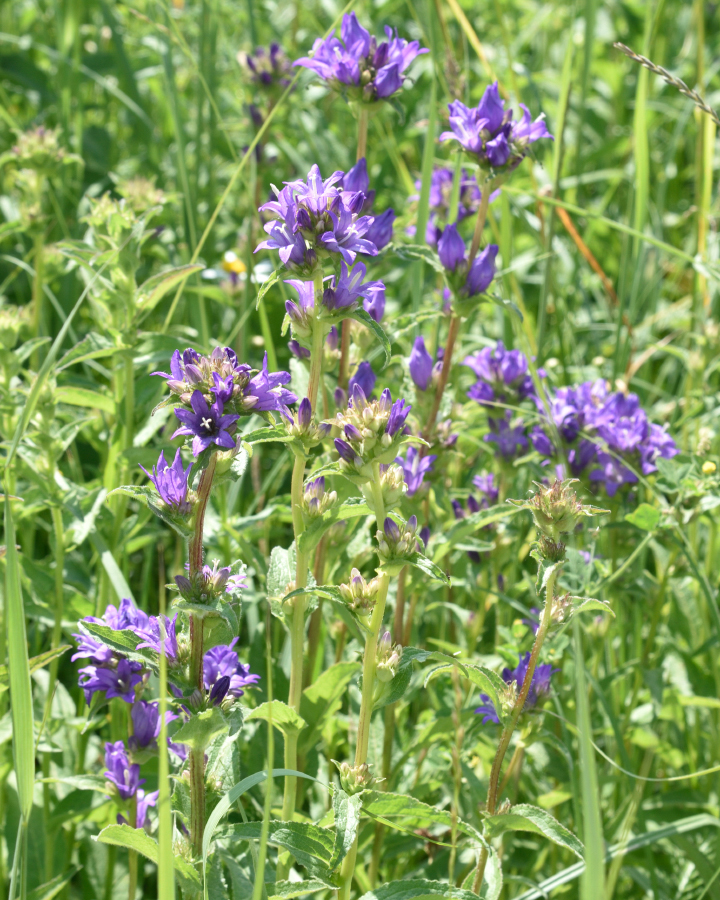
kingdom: Plantae
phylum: Tracheophyta
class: Magnoliopsida
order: Asterales
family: Campanulaceae
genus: Campanula
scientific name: Campanula glomerata
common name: Clustered bellflower
